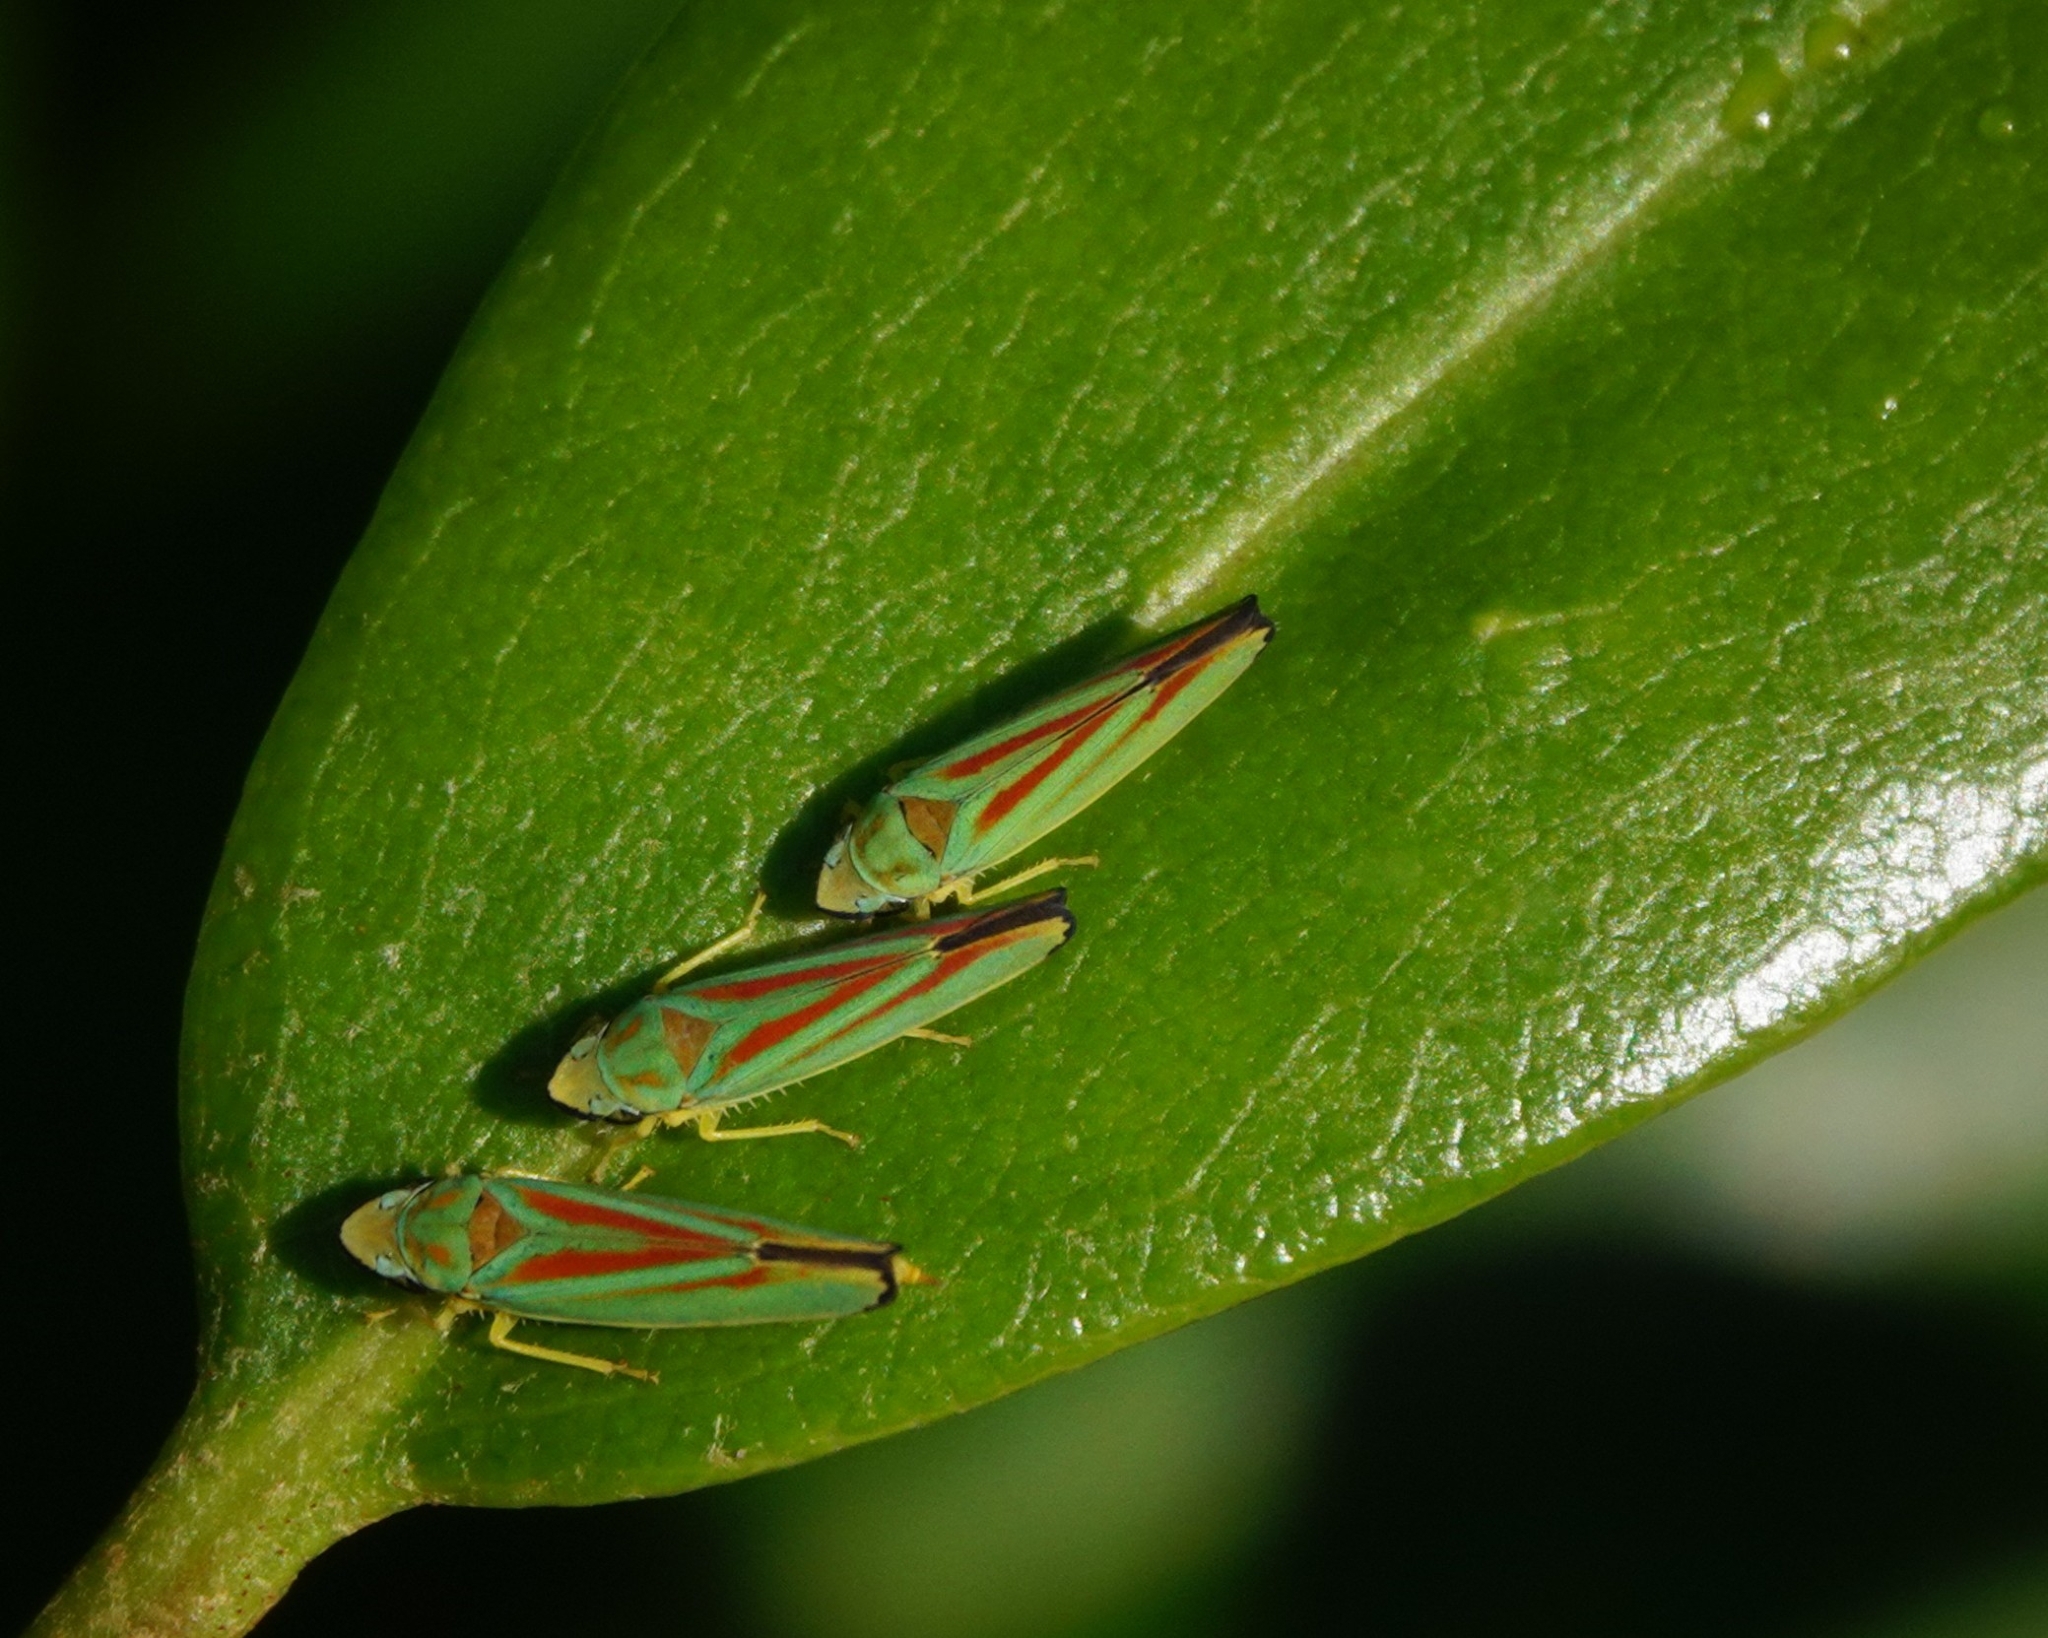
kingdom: Animalia
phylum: Arthropoda
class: Insecta
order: Hemiptera
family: Cicadellidae
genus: Graphocephala
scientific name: Graphocephala fennahi
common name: Rhododendron leafhopper
